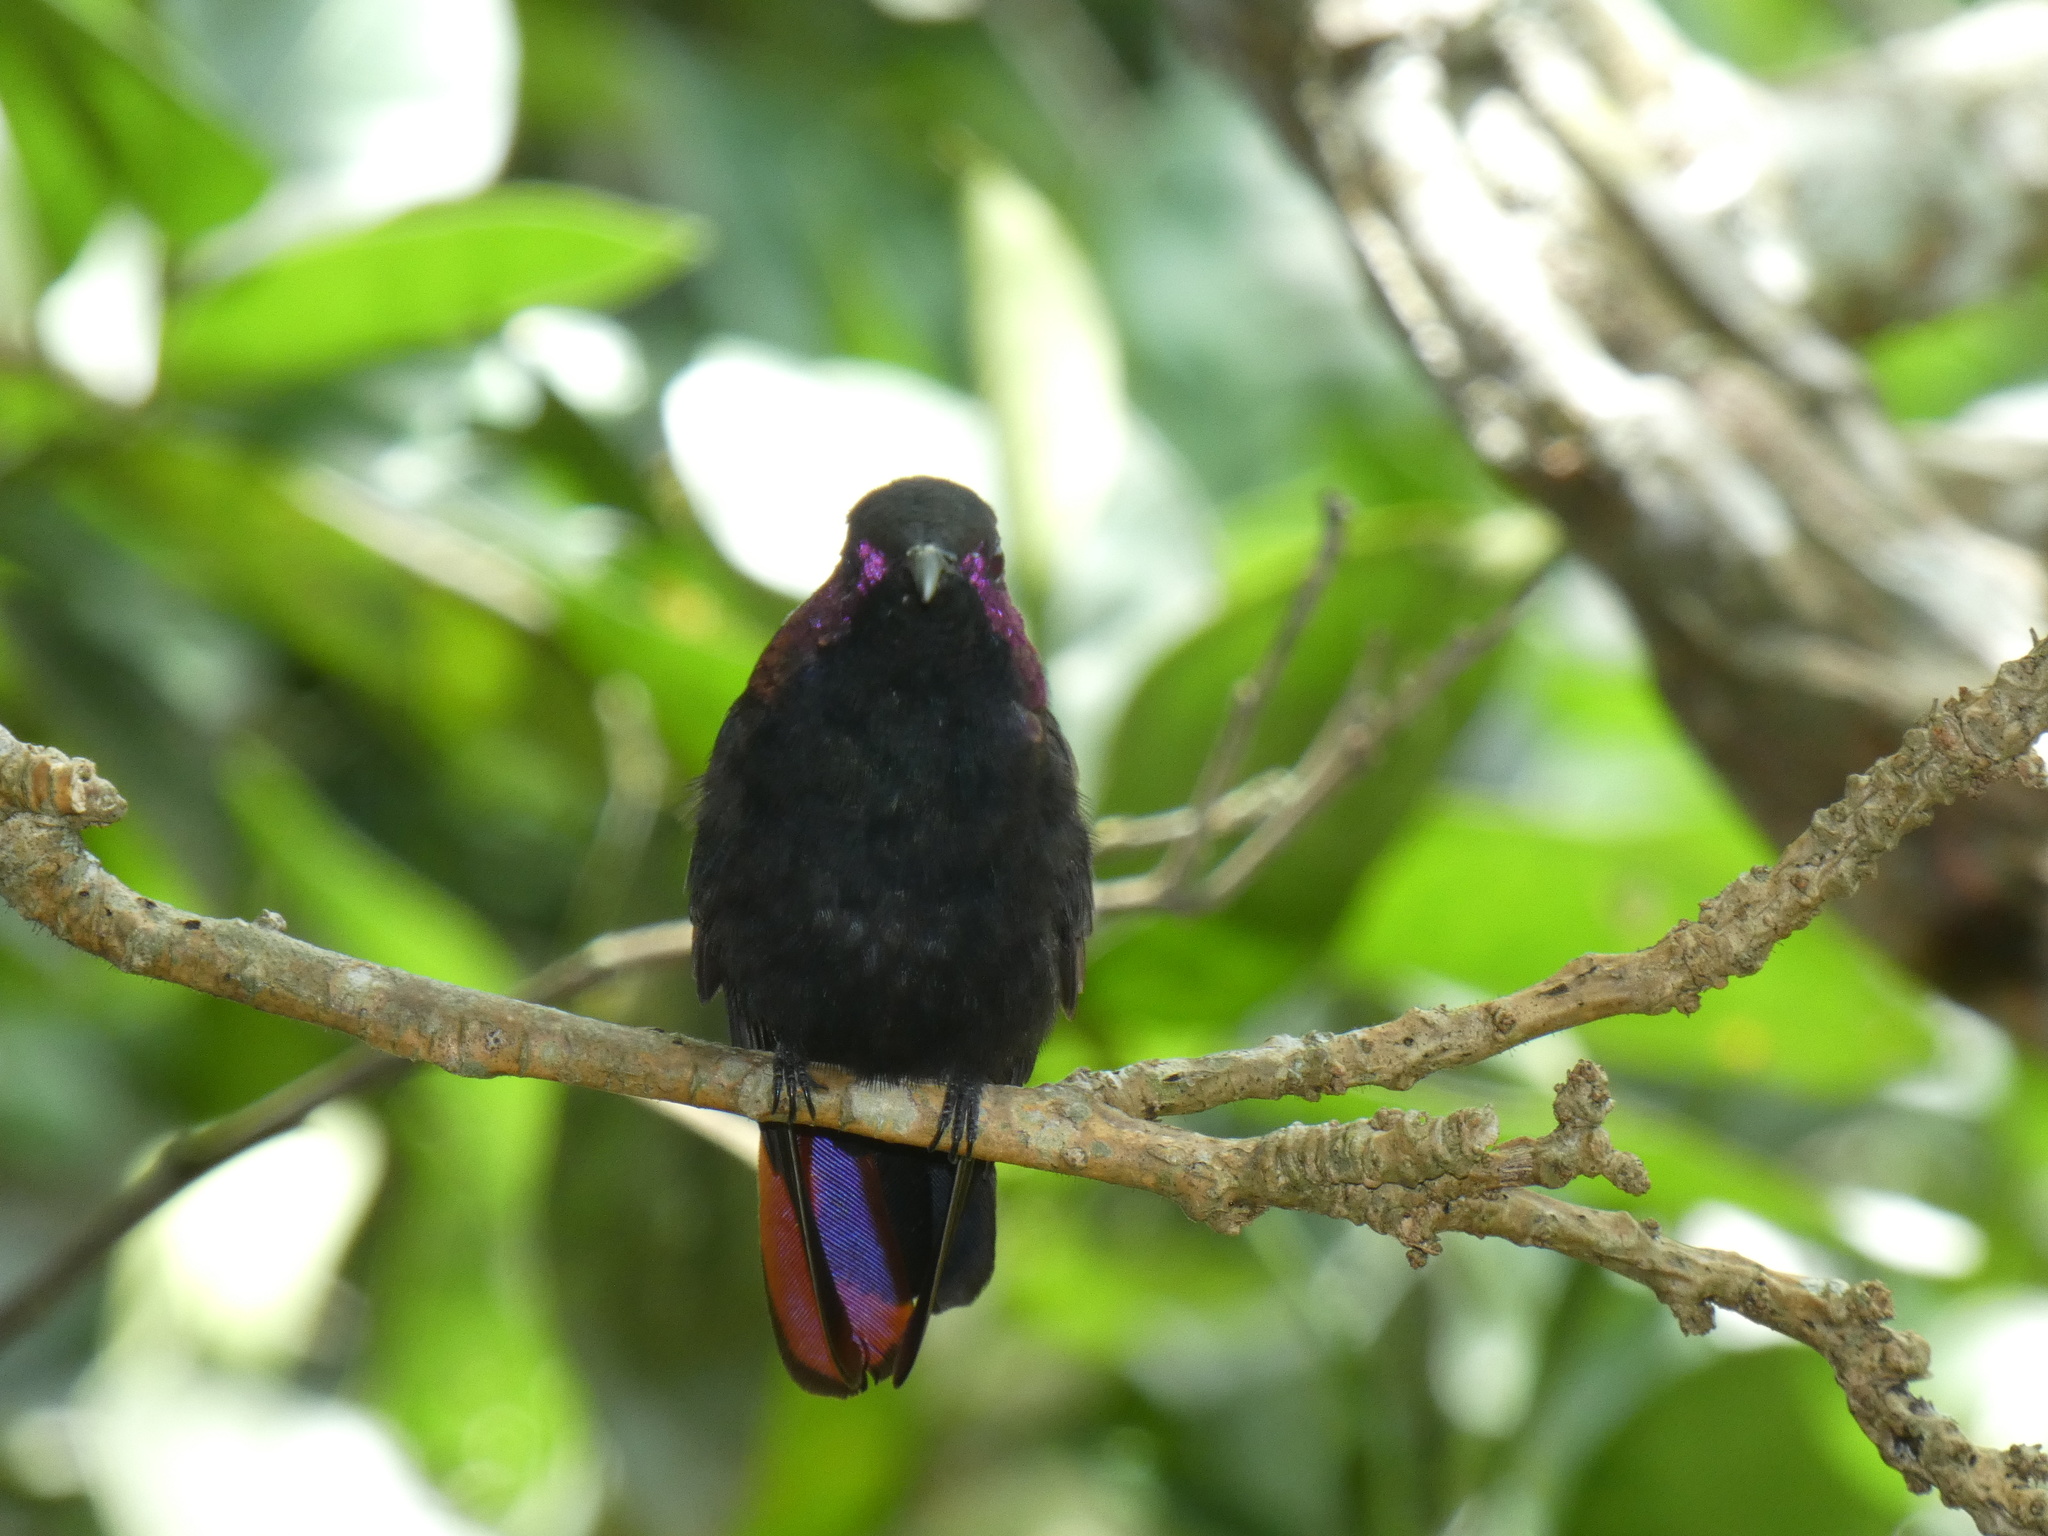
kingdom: Animalia
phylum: Chordata
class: Aves
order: Apodiformes
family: Trochilidae
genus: Anthracothorax
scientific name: Anthracothorax mango
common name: Jamaican mango
